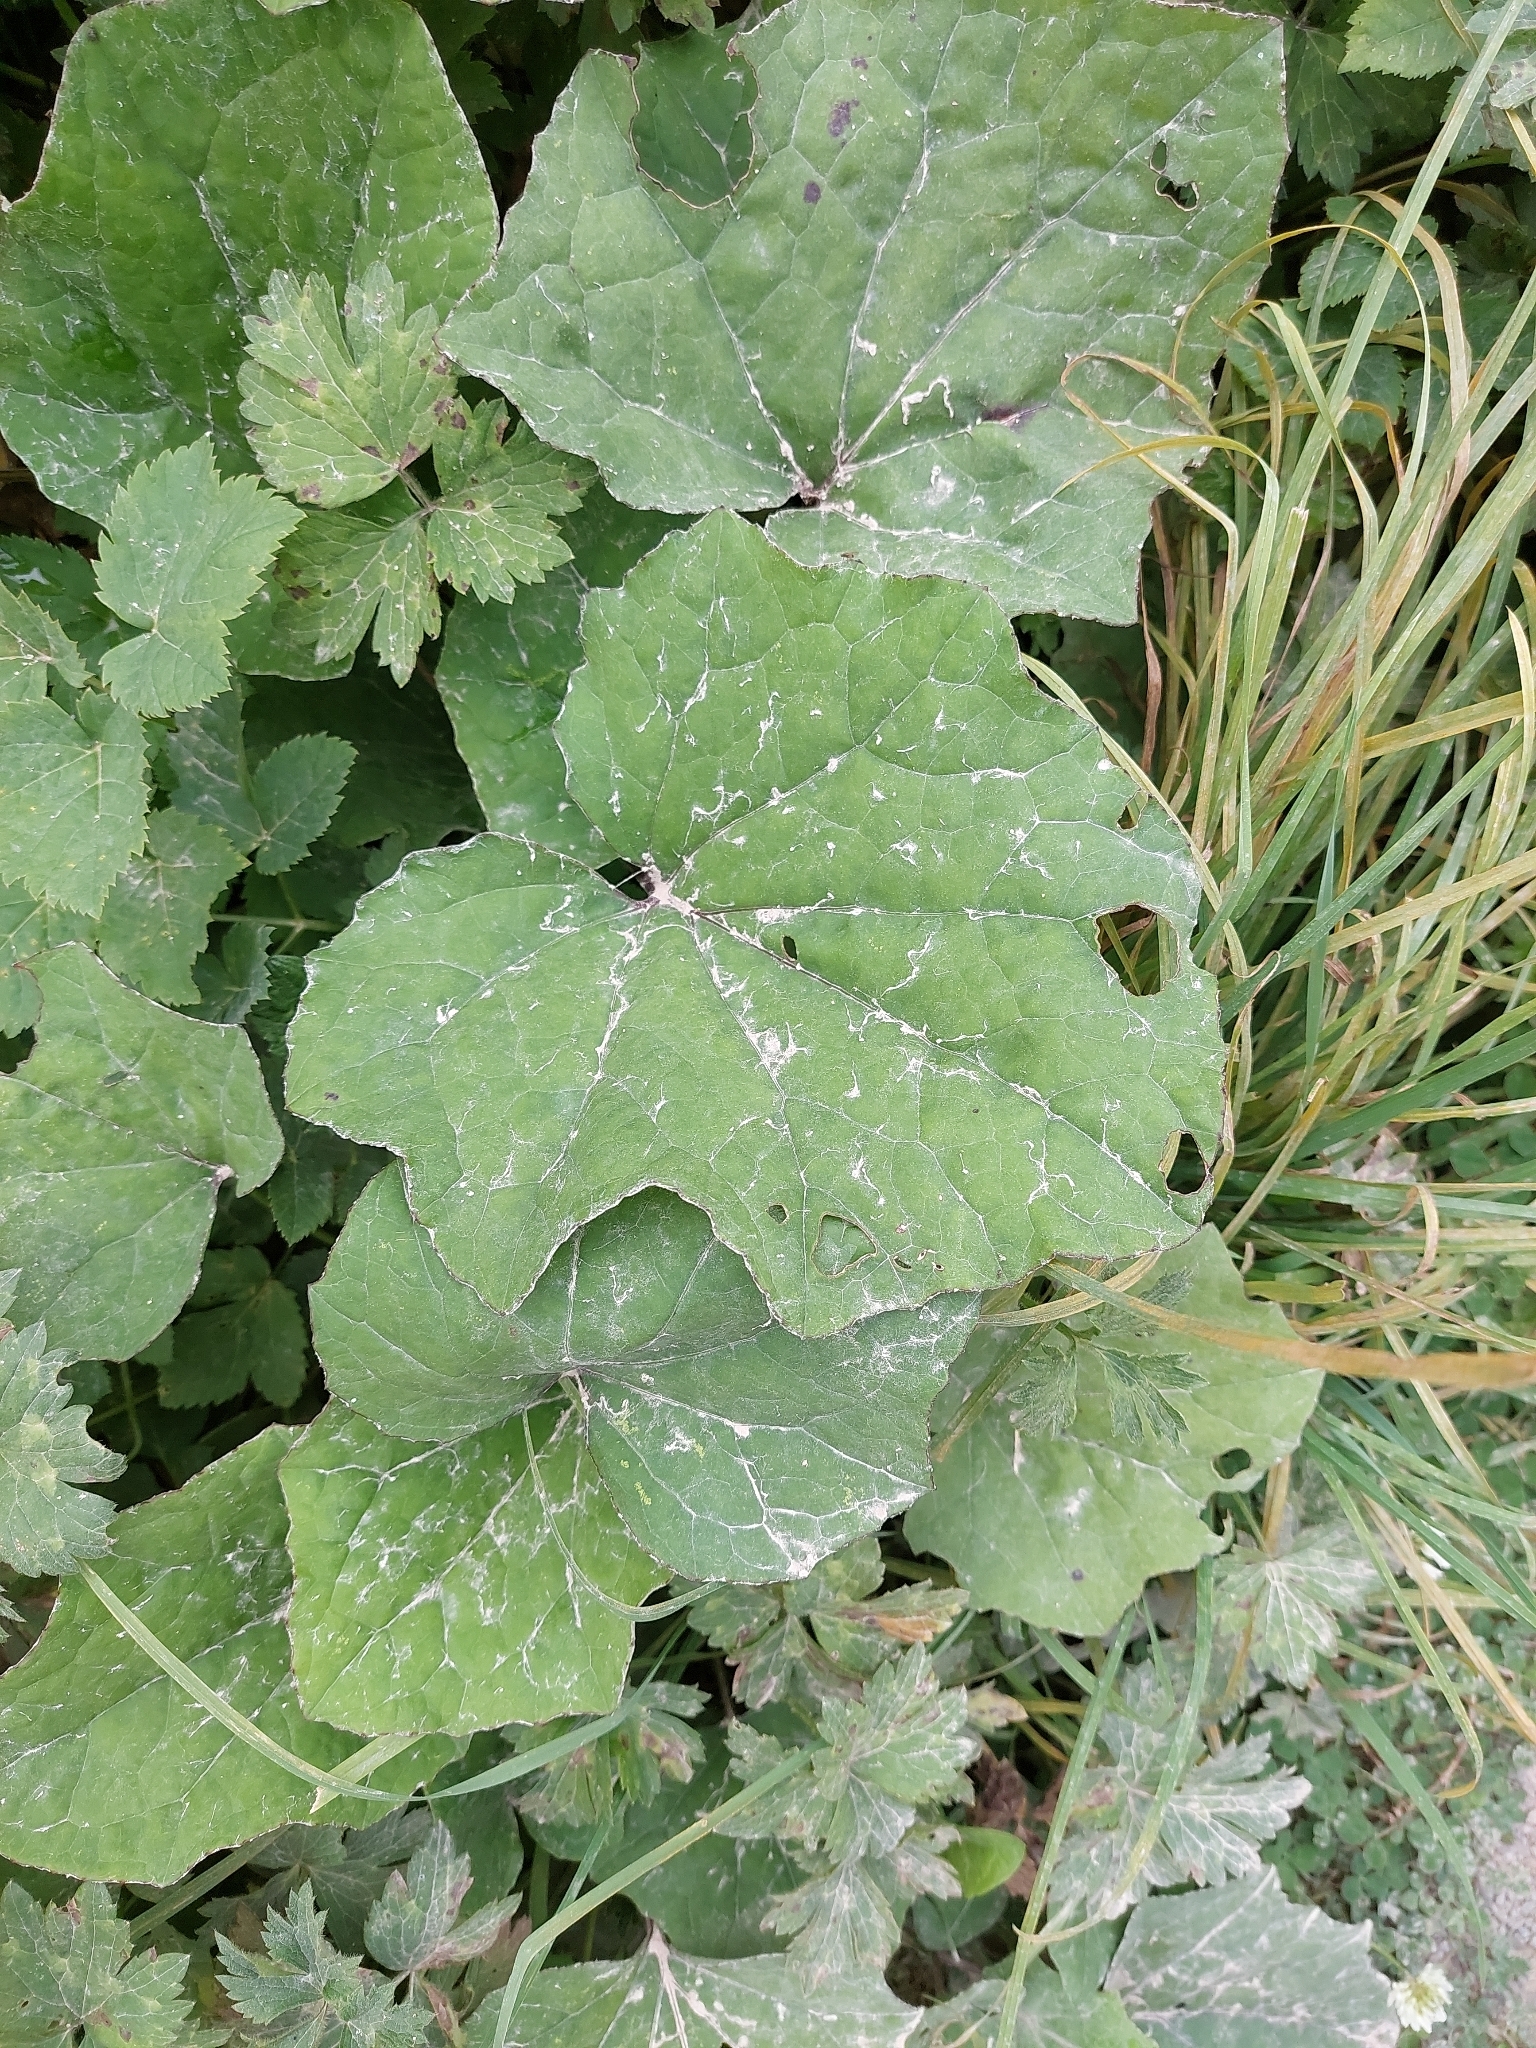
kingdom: Plantae
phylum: Tracheophyta
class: Magnoliopsida
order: Asterales
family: Asteraceae
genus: Tussilago
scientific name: Tussilago farfara
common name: Coltsfoot
